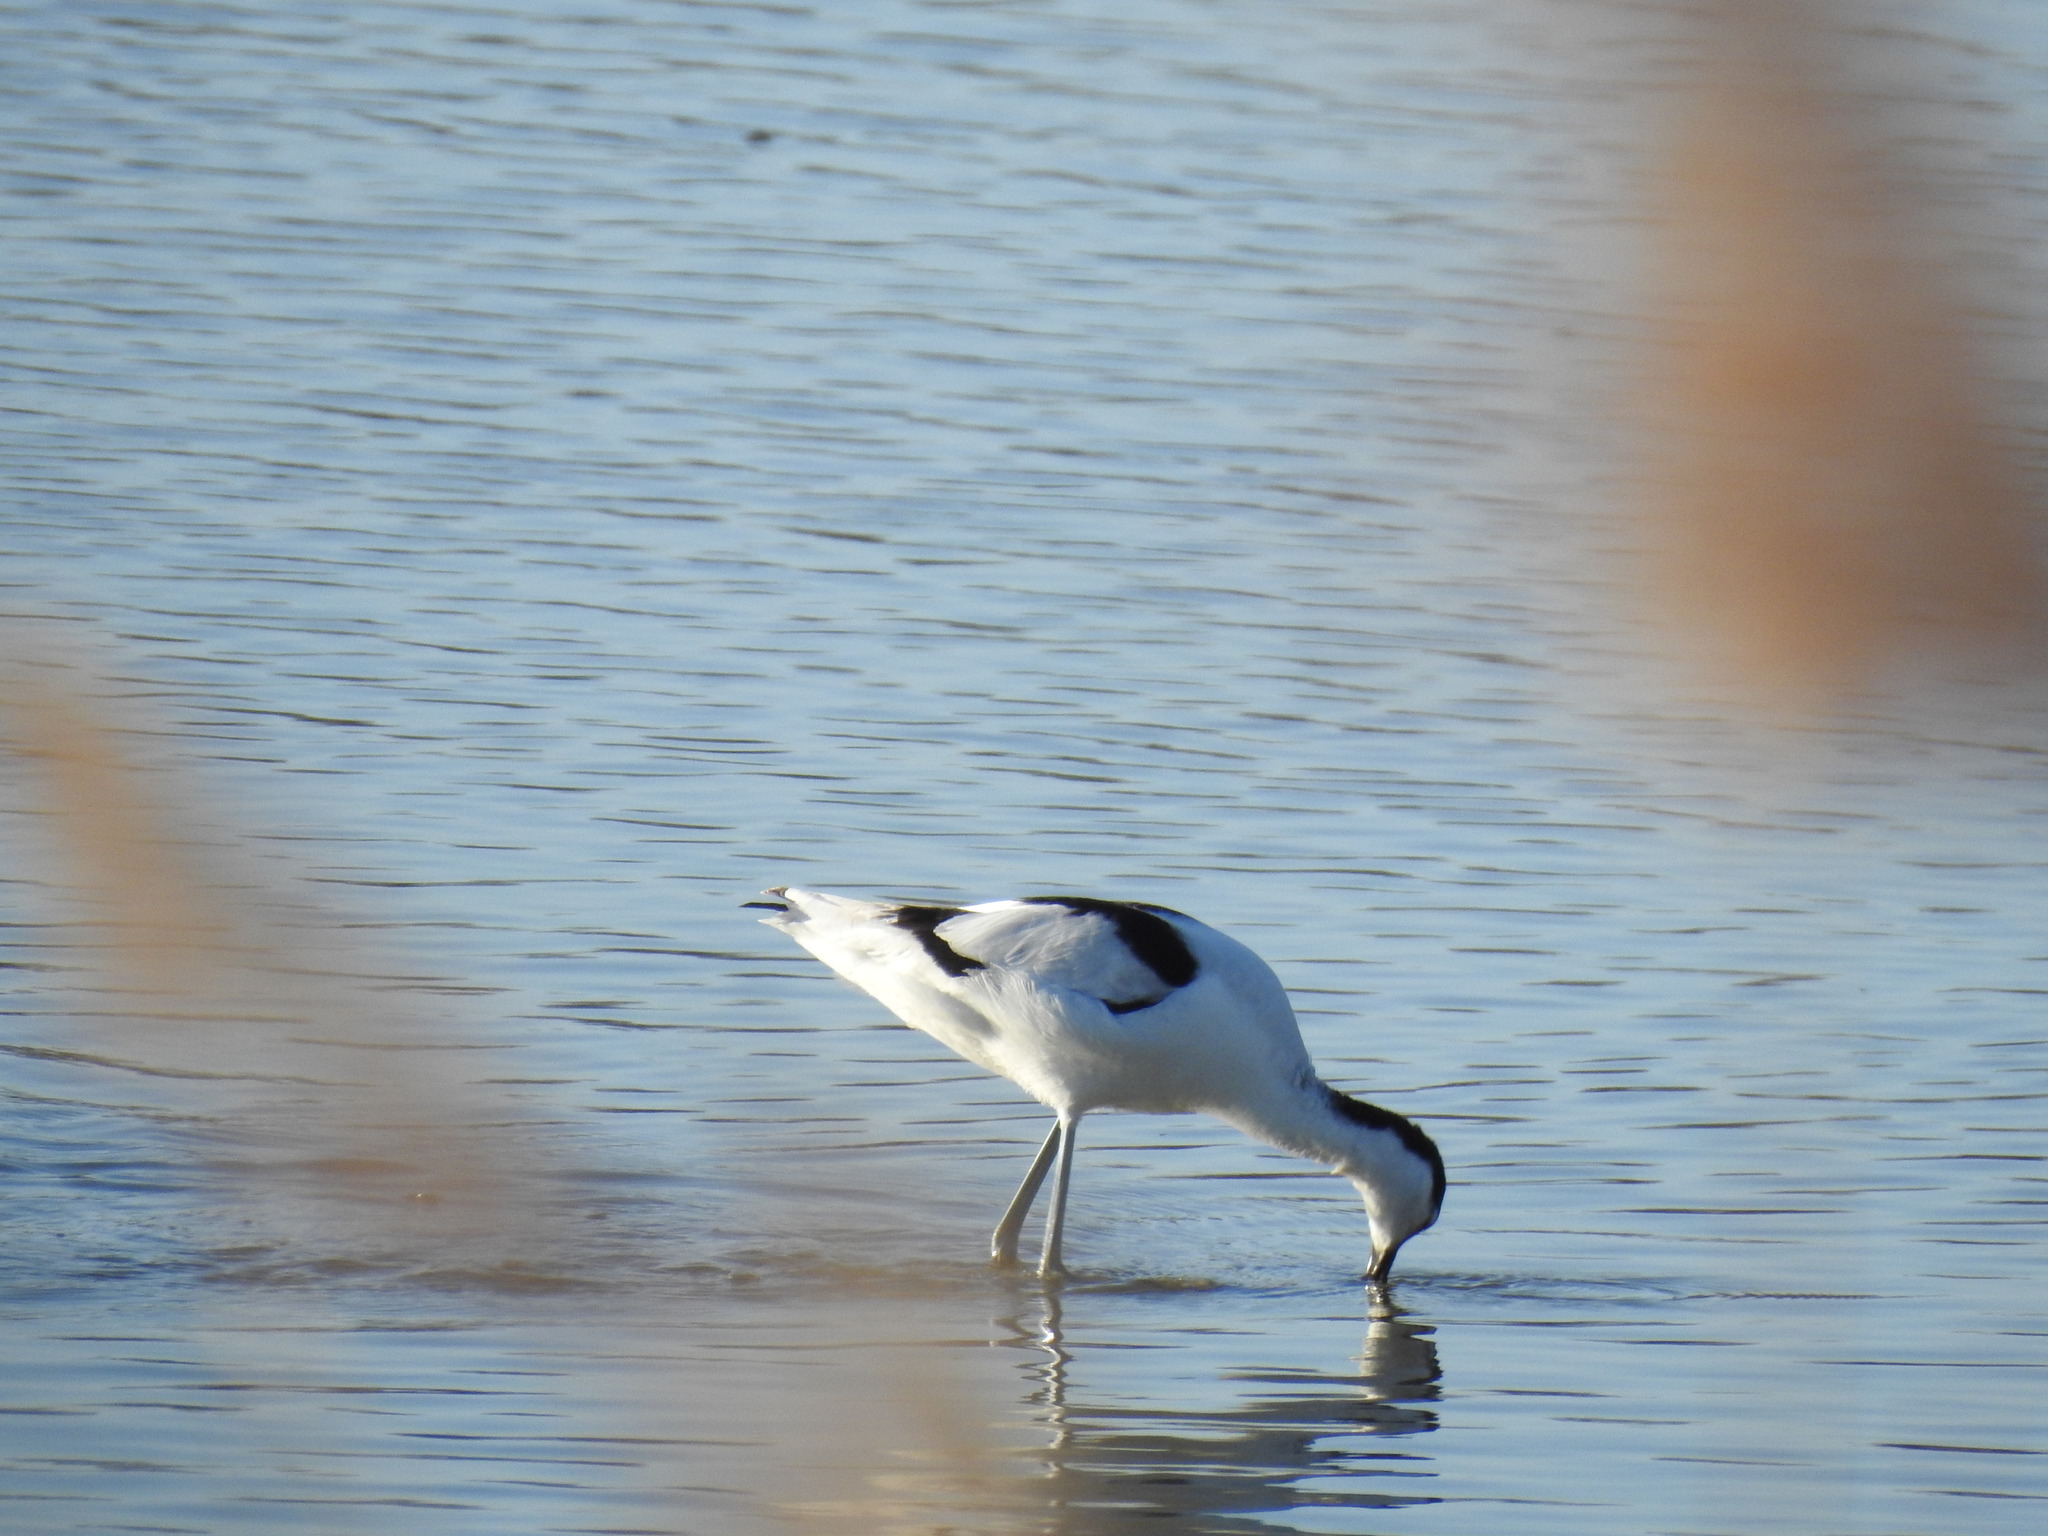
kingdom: Animalia
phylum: Chordata
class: Aves
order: Charadriiformes
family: Recurvirostridae
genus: Recurvirostra
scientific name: Recurvirostra avosetta
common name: Pied avocet
